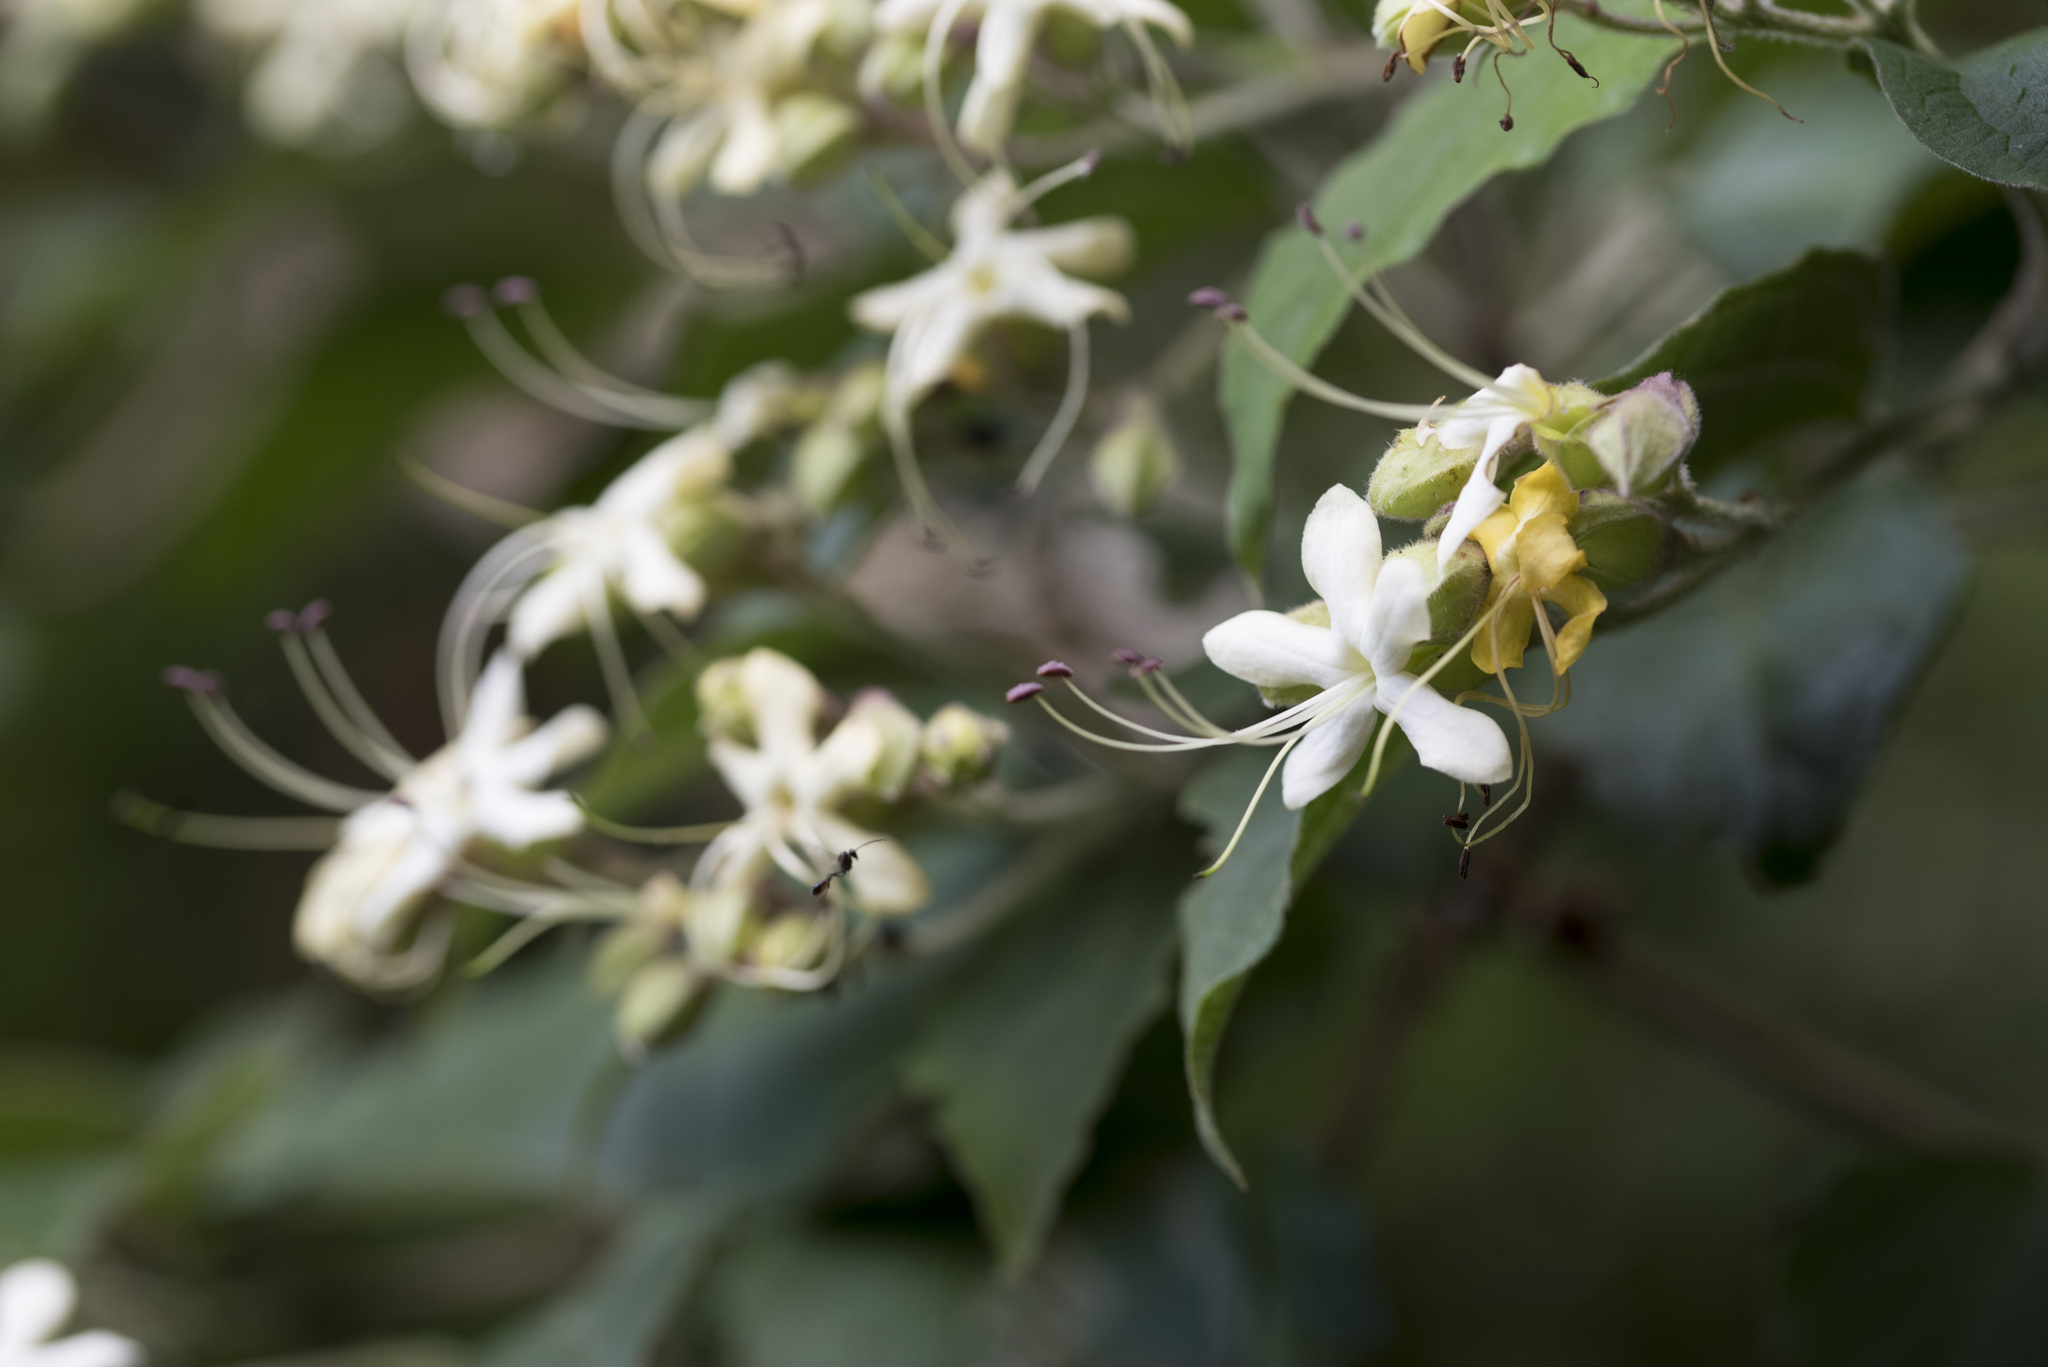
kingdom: Plantae
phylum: Tracheophyta
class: Magnoliopsida
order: Lamiales
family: Lamiaceae
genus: Clerodendrum
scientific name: Clerodendrum trichotomum
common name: Harlequin glorybower
